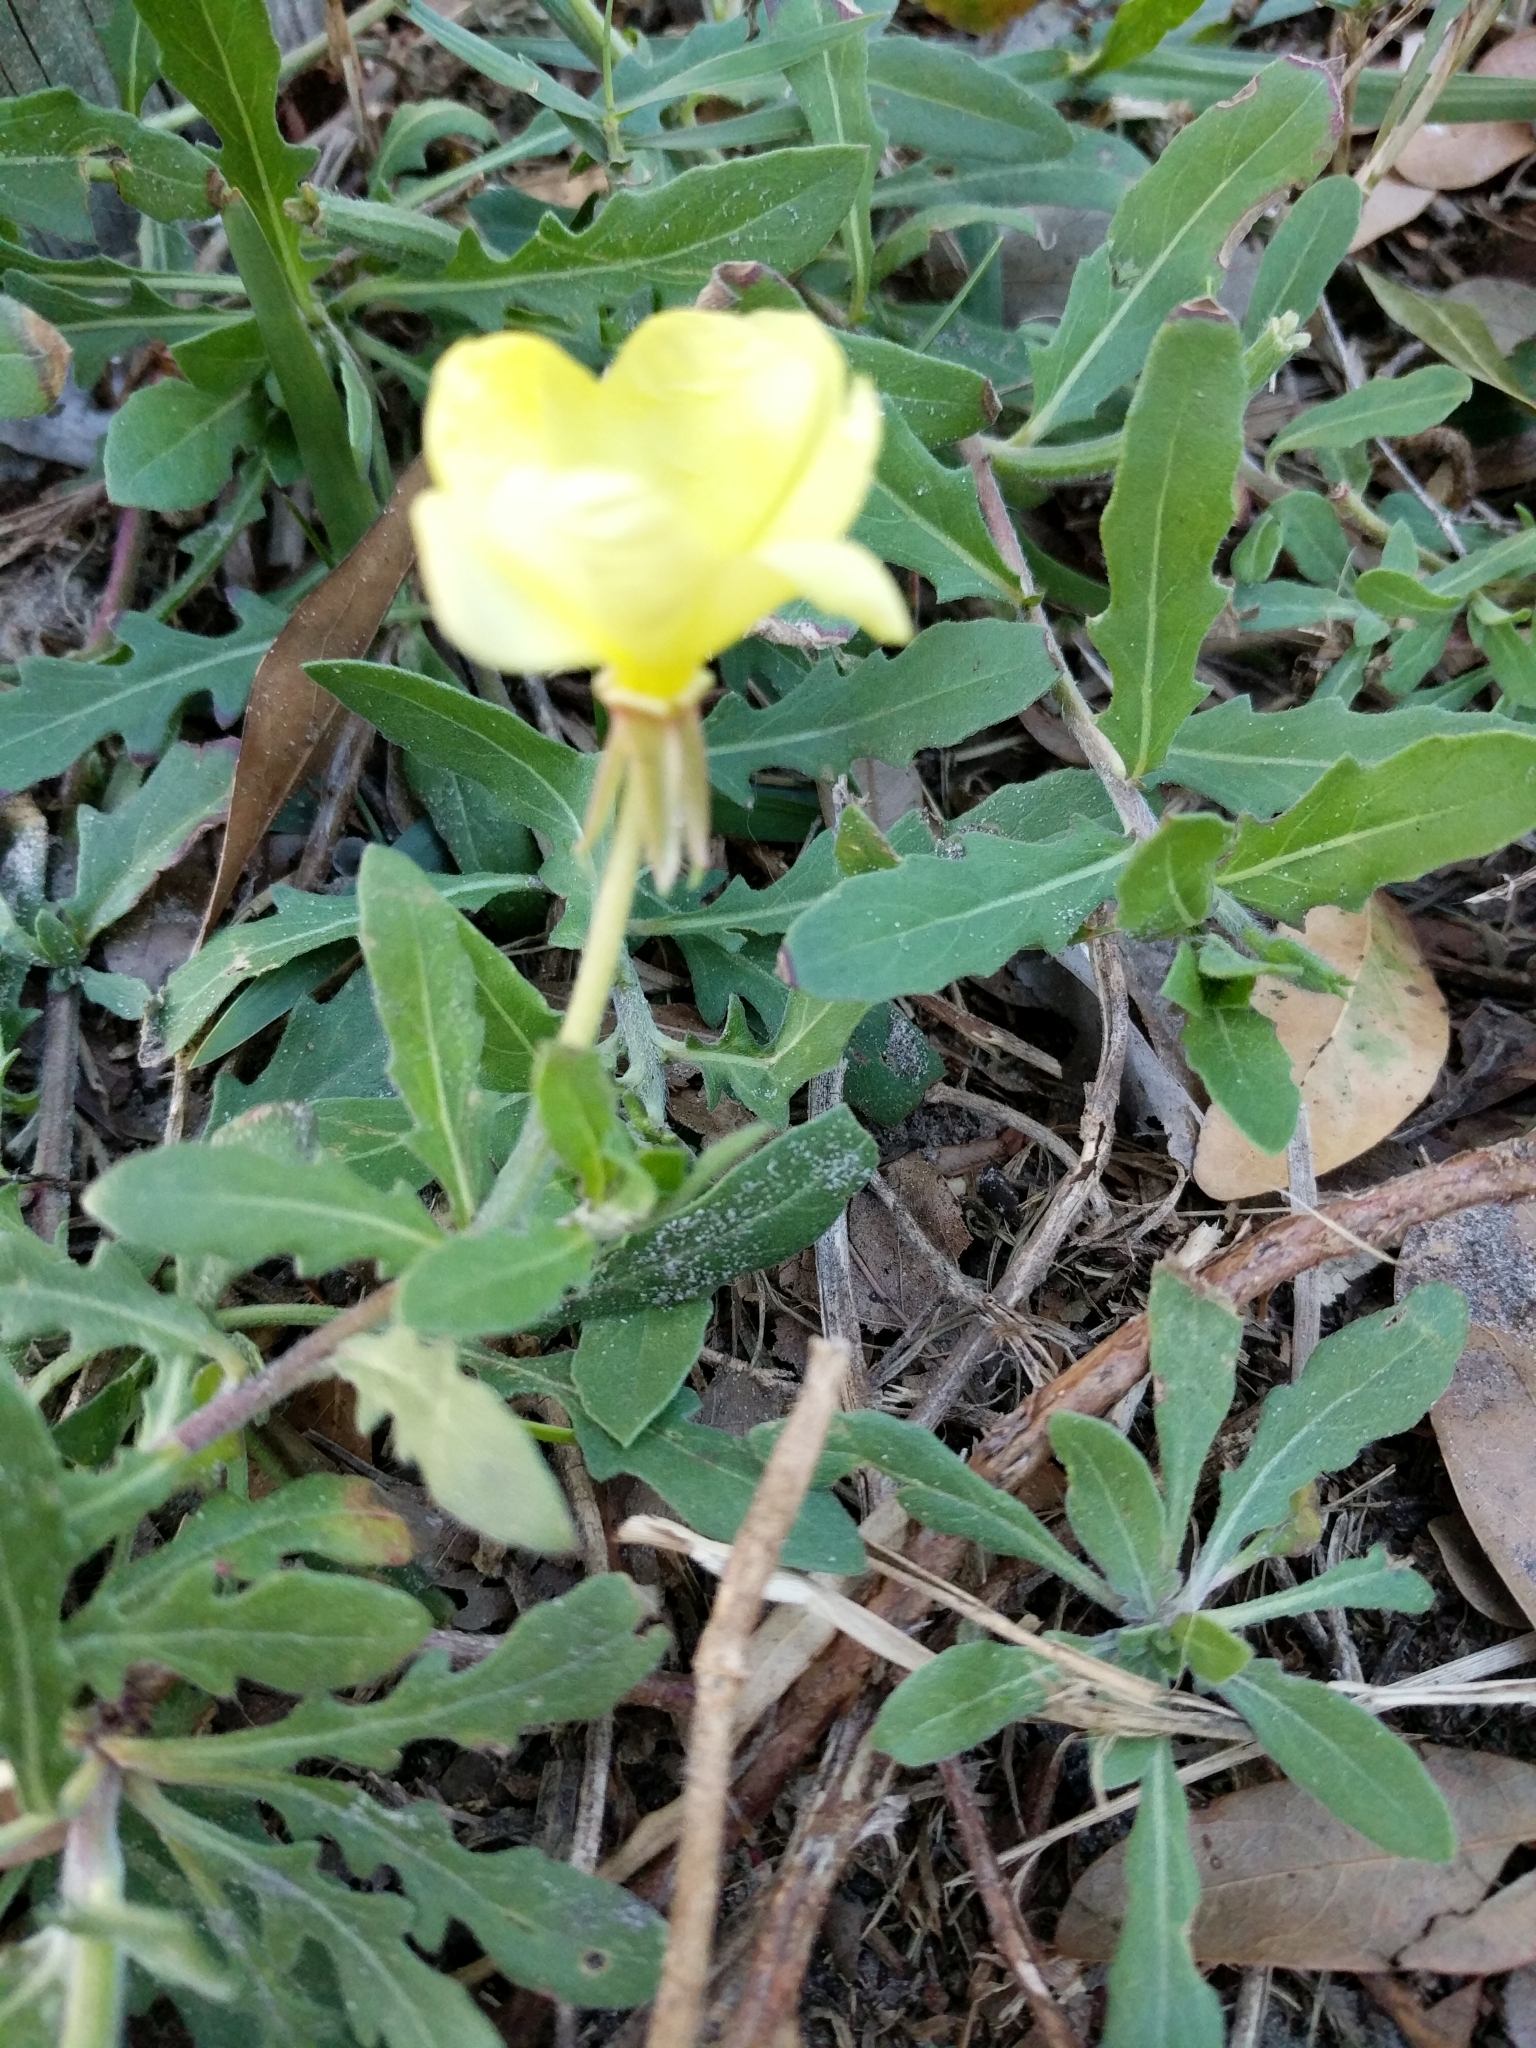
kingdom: Plantae
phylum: Tracheophyta
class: Magnoliopsida
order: Myrtales
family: Onagraceae
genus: Oenothera
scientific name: Oenothera laciniata
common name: Cut-leaved evening-primrose
